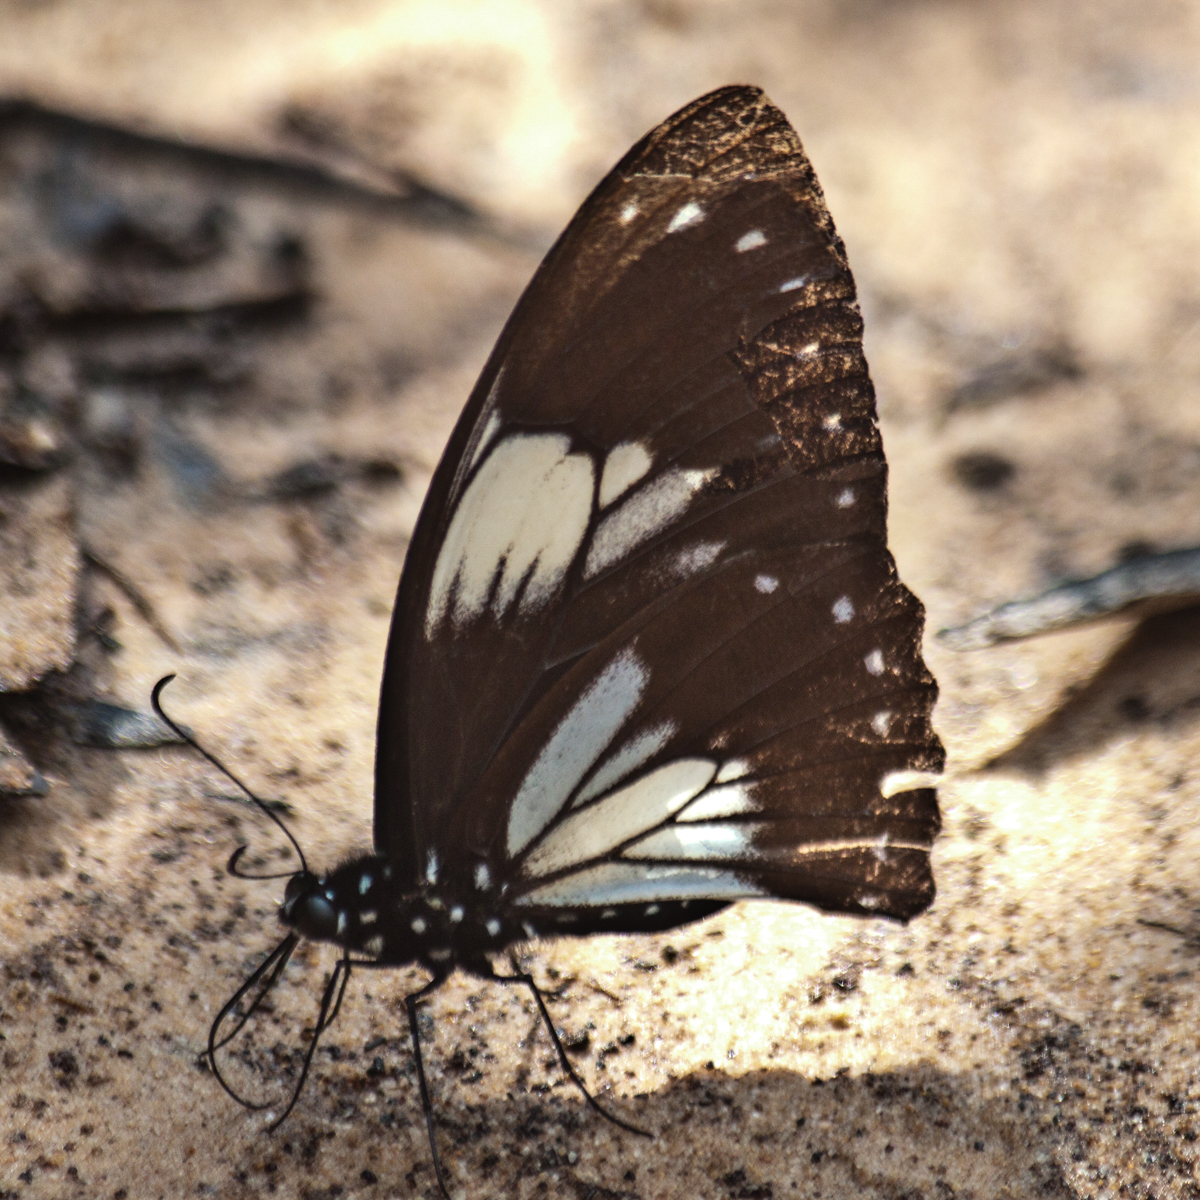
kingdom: Animalia
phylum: Arthropoda
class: Insecta
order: Lepidoptera
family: Papilionidae
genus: Papilio
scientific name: Papilio paradoxa
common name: Great blue mime swallowtail
